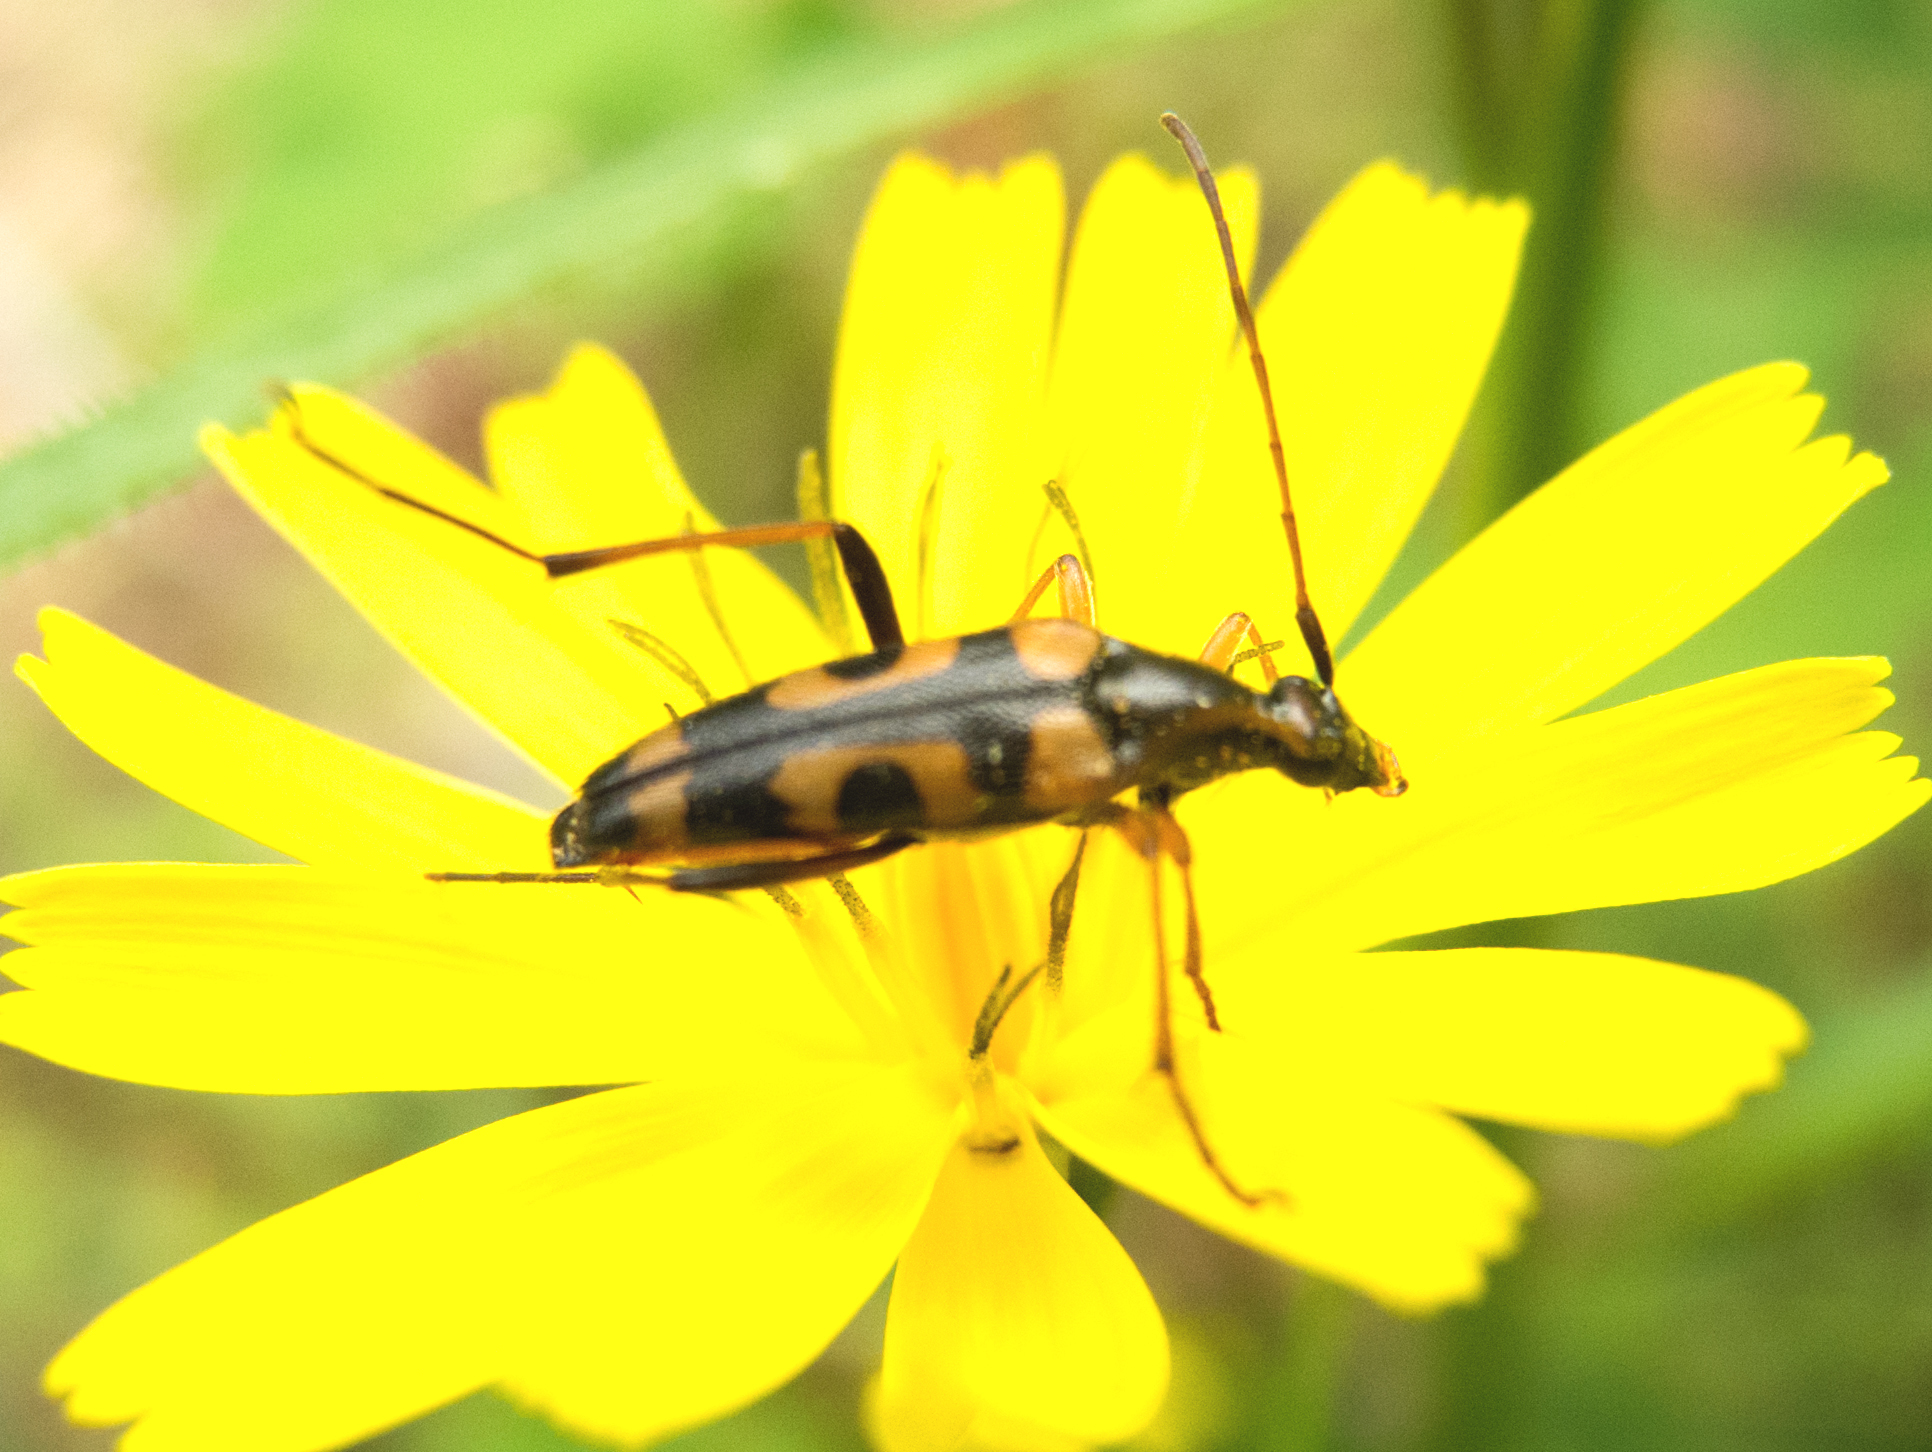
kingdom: Animalia
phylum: Arthropoda
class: Insecta
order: Coleoptera
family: Cerambycidae
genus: Stenurella
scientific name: Stenurella septempunctata
